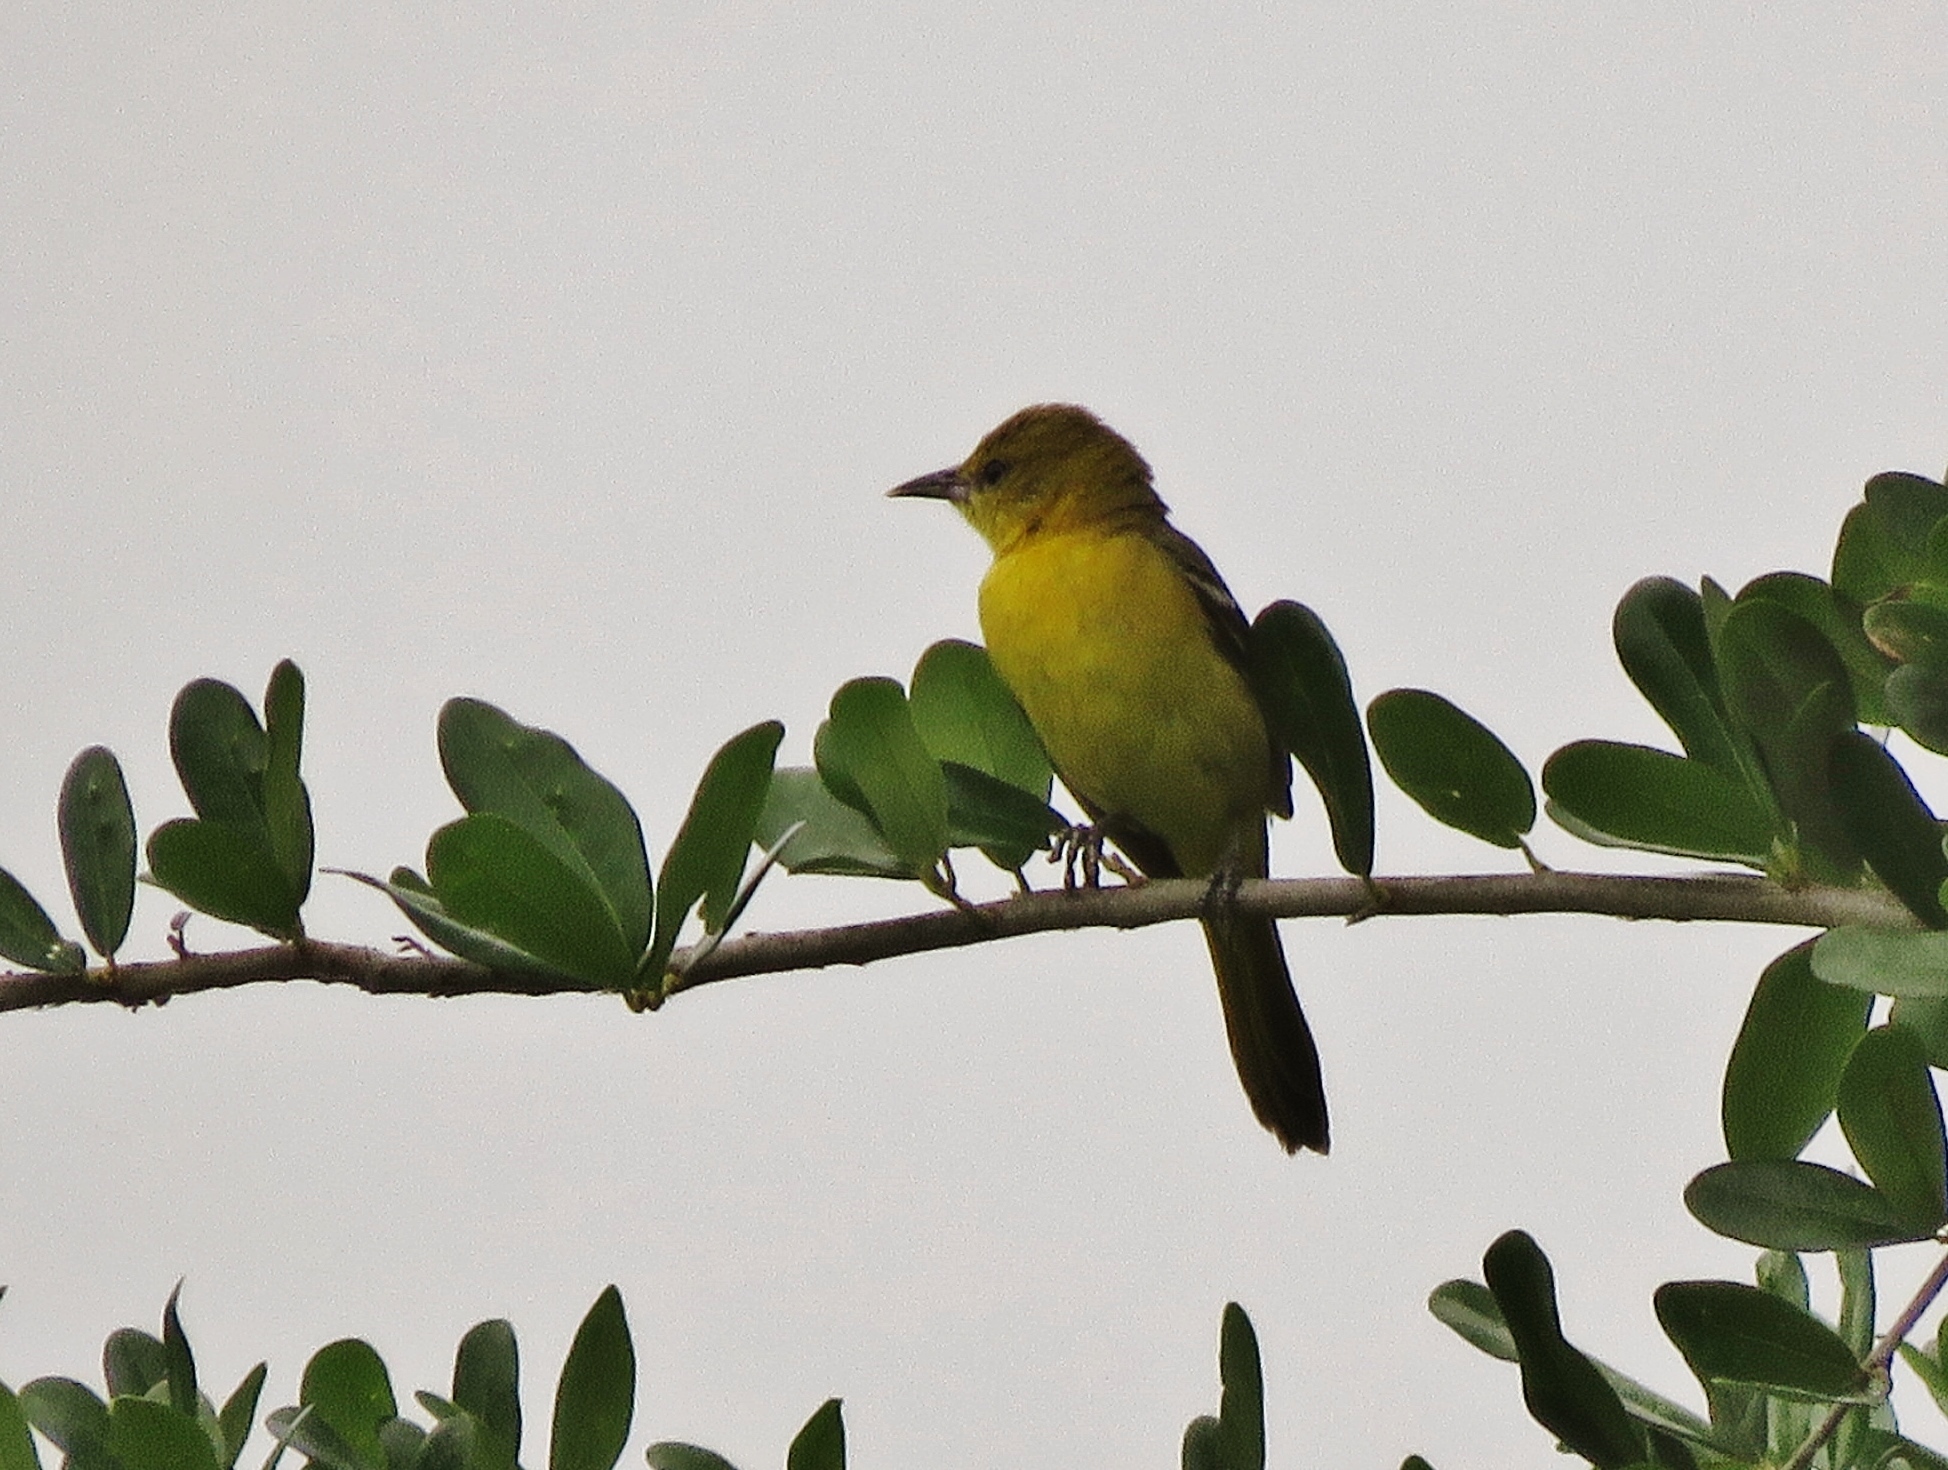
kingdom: Animalia
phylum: Chordata
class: Aves
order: Passeriformes
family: Icteridae
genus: Icterus
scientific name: Icterus spurius
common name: Orchard oriole
